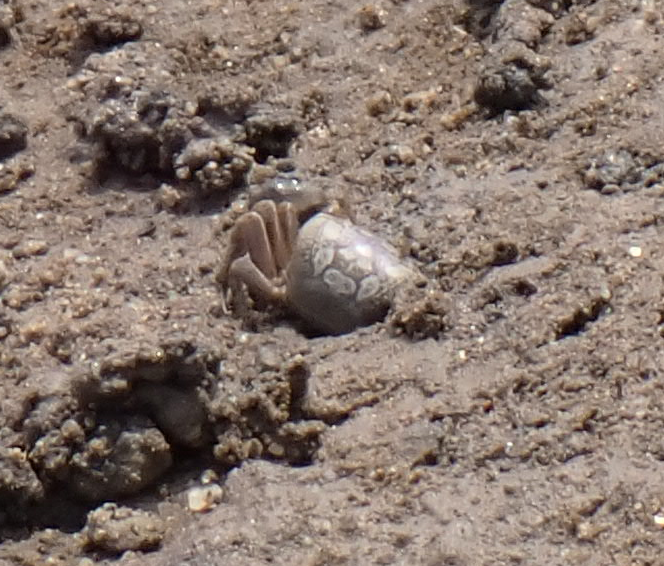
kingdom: Animalia
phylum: Arthropoda
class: Malacostraca
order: Decapoda
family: Ocypodidae
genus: Leptuca
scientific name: Leptuca pugilator
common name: Atlantic sand fiddler crab
